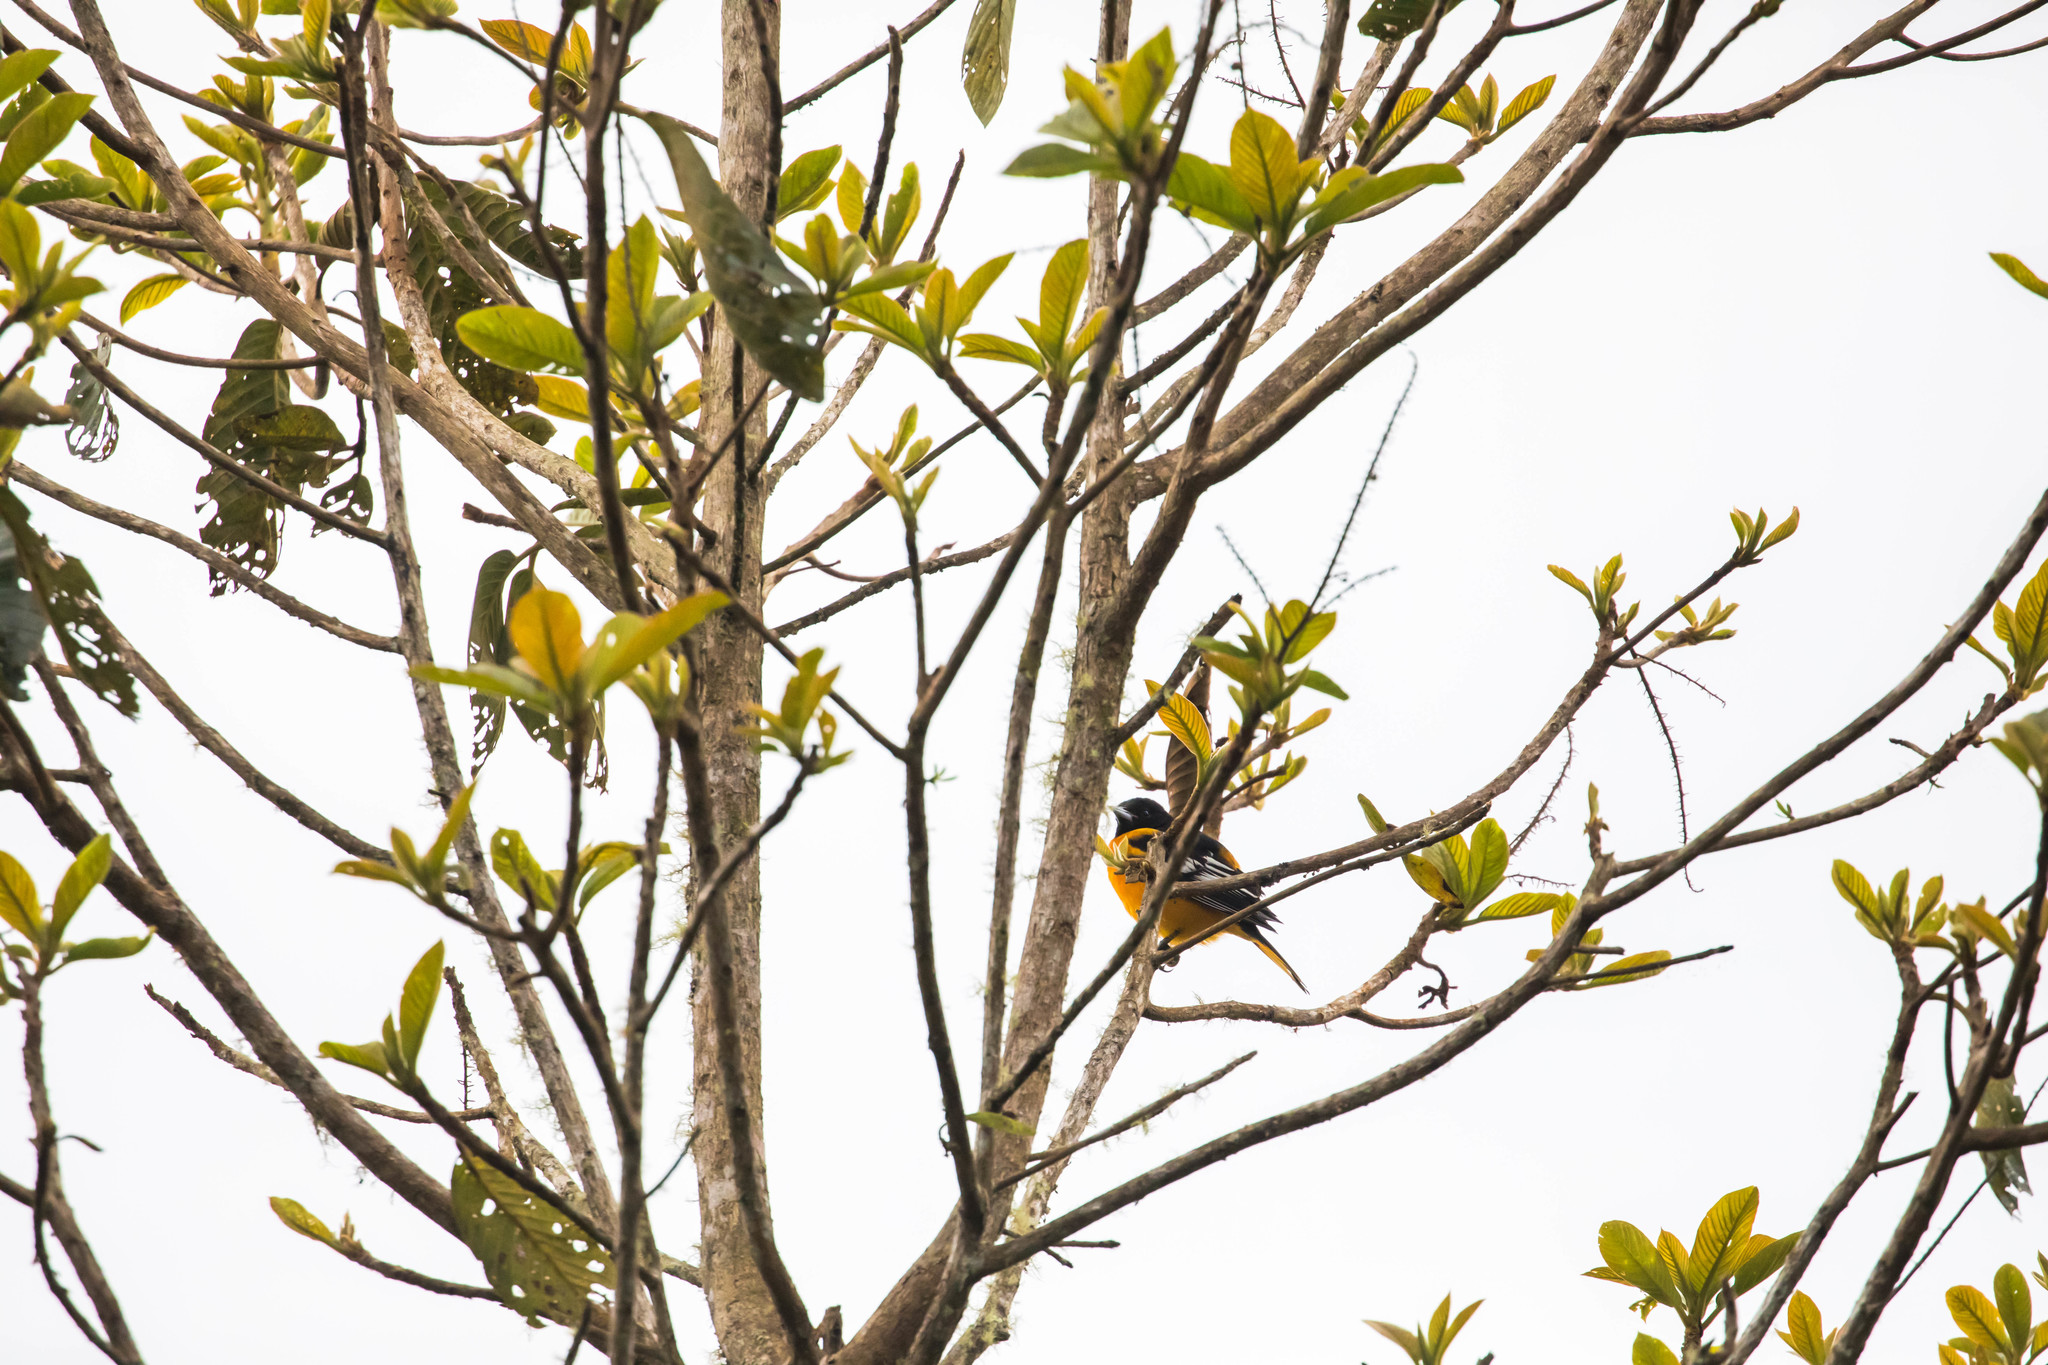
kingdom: Animalia
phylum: Chordata
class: Aves
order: Passeriformes
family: Icteridae
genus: Icterus
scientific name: Icterus galbula
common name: Baltimore oriole
